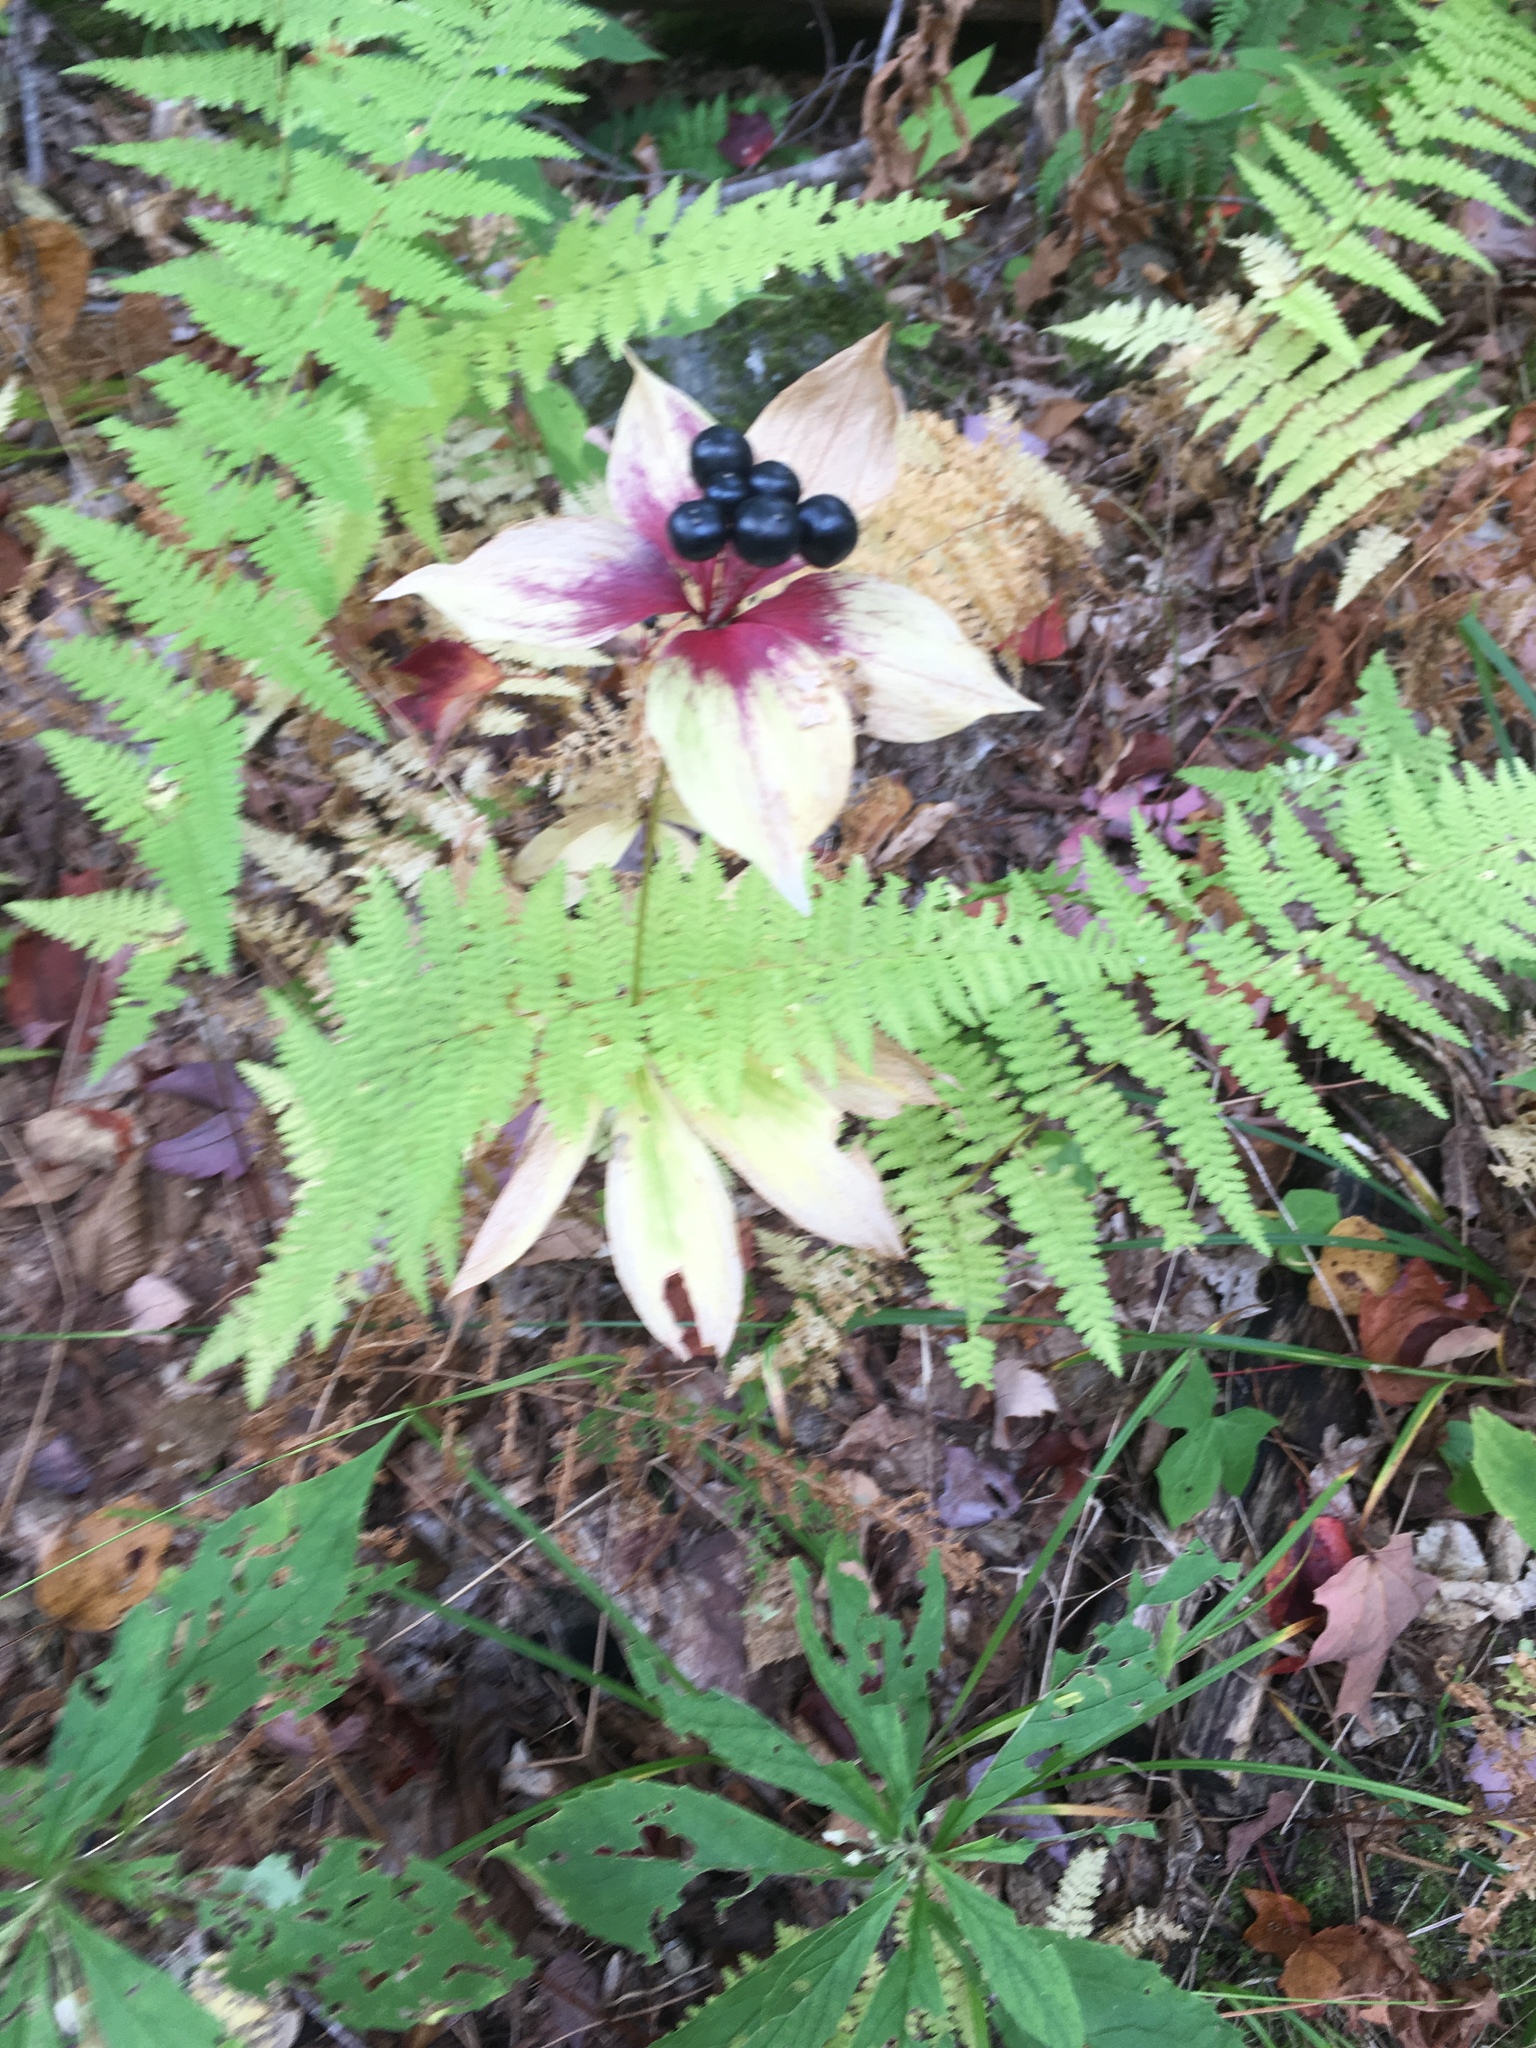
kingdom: Plantae
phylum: Tracheophyta
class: Liliopsida
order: Liliales
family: Liliaceae
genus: Medeola
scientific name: Medeola virginiana
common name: Indian cucumber-root
